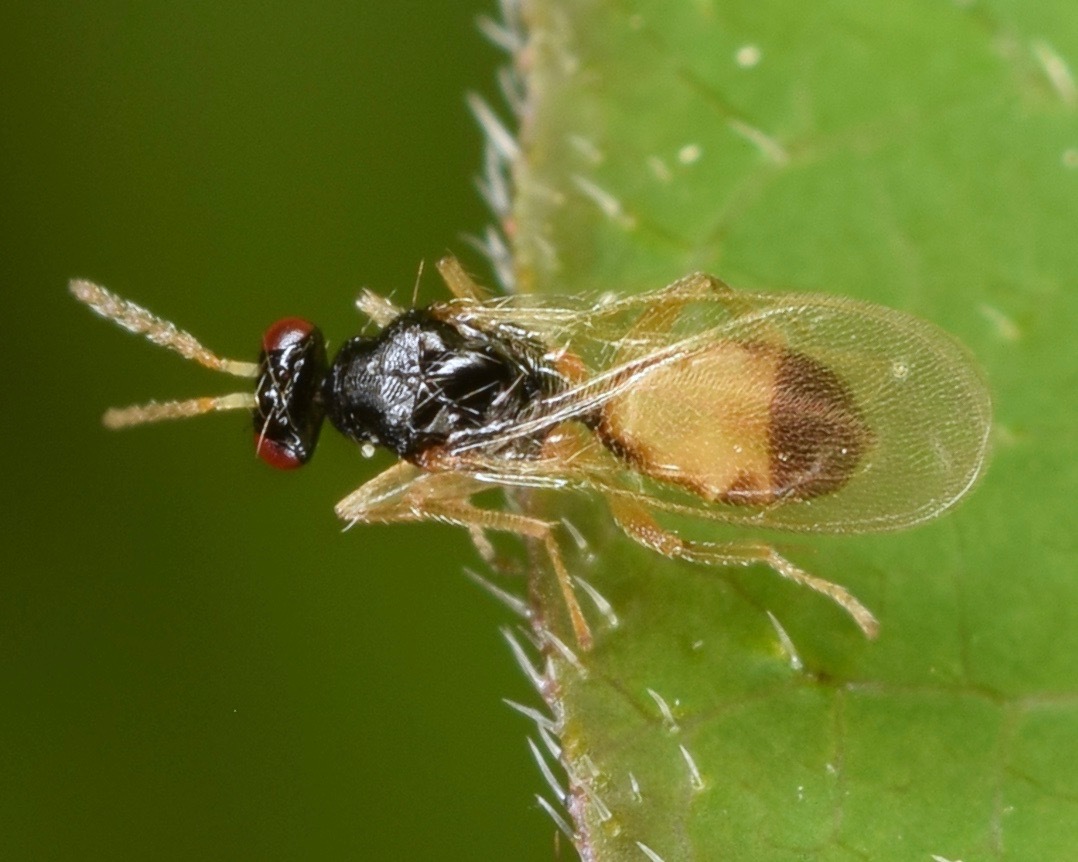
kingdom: Animalia
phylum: Arthropoda
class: Insecta
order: Hymenoptera
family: Eulophidae
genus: Euplectrus
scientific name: Euplectrus
